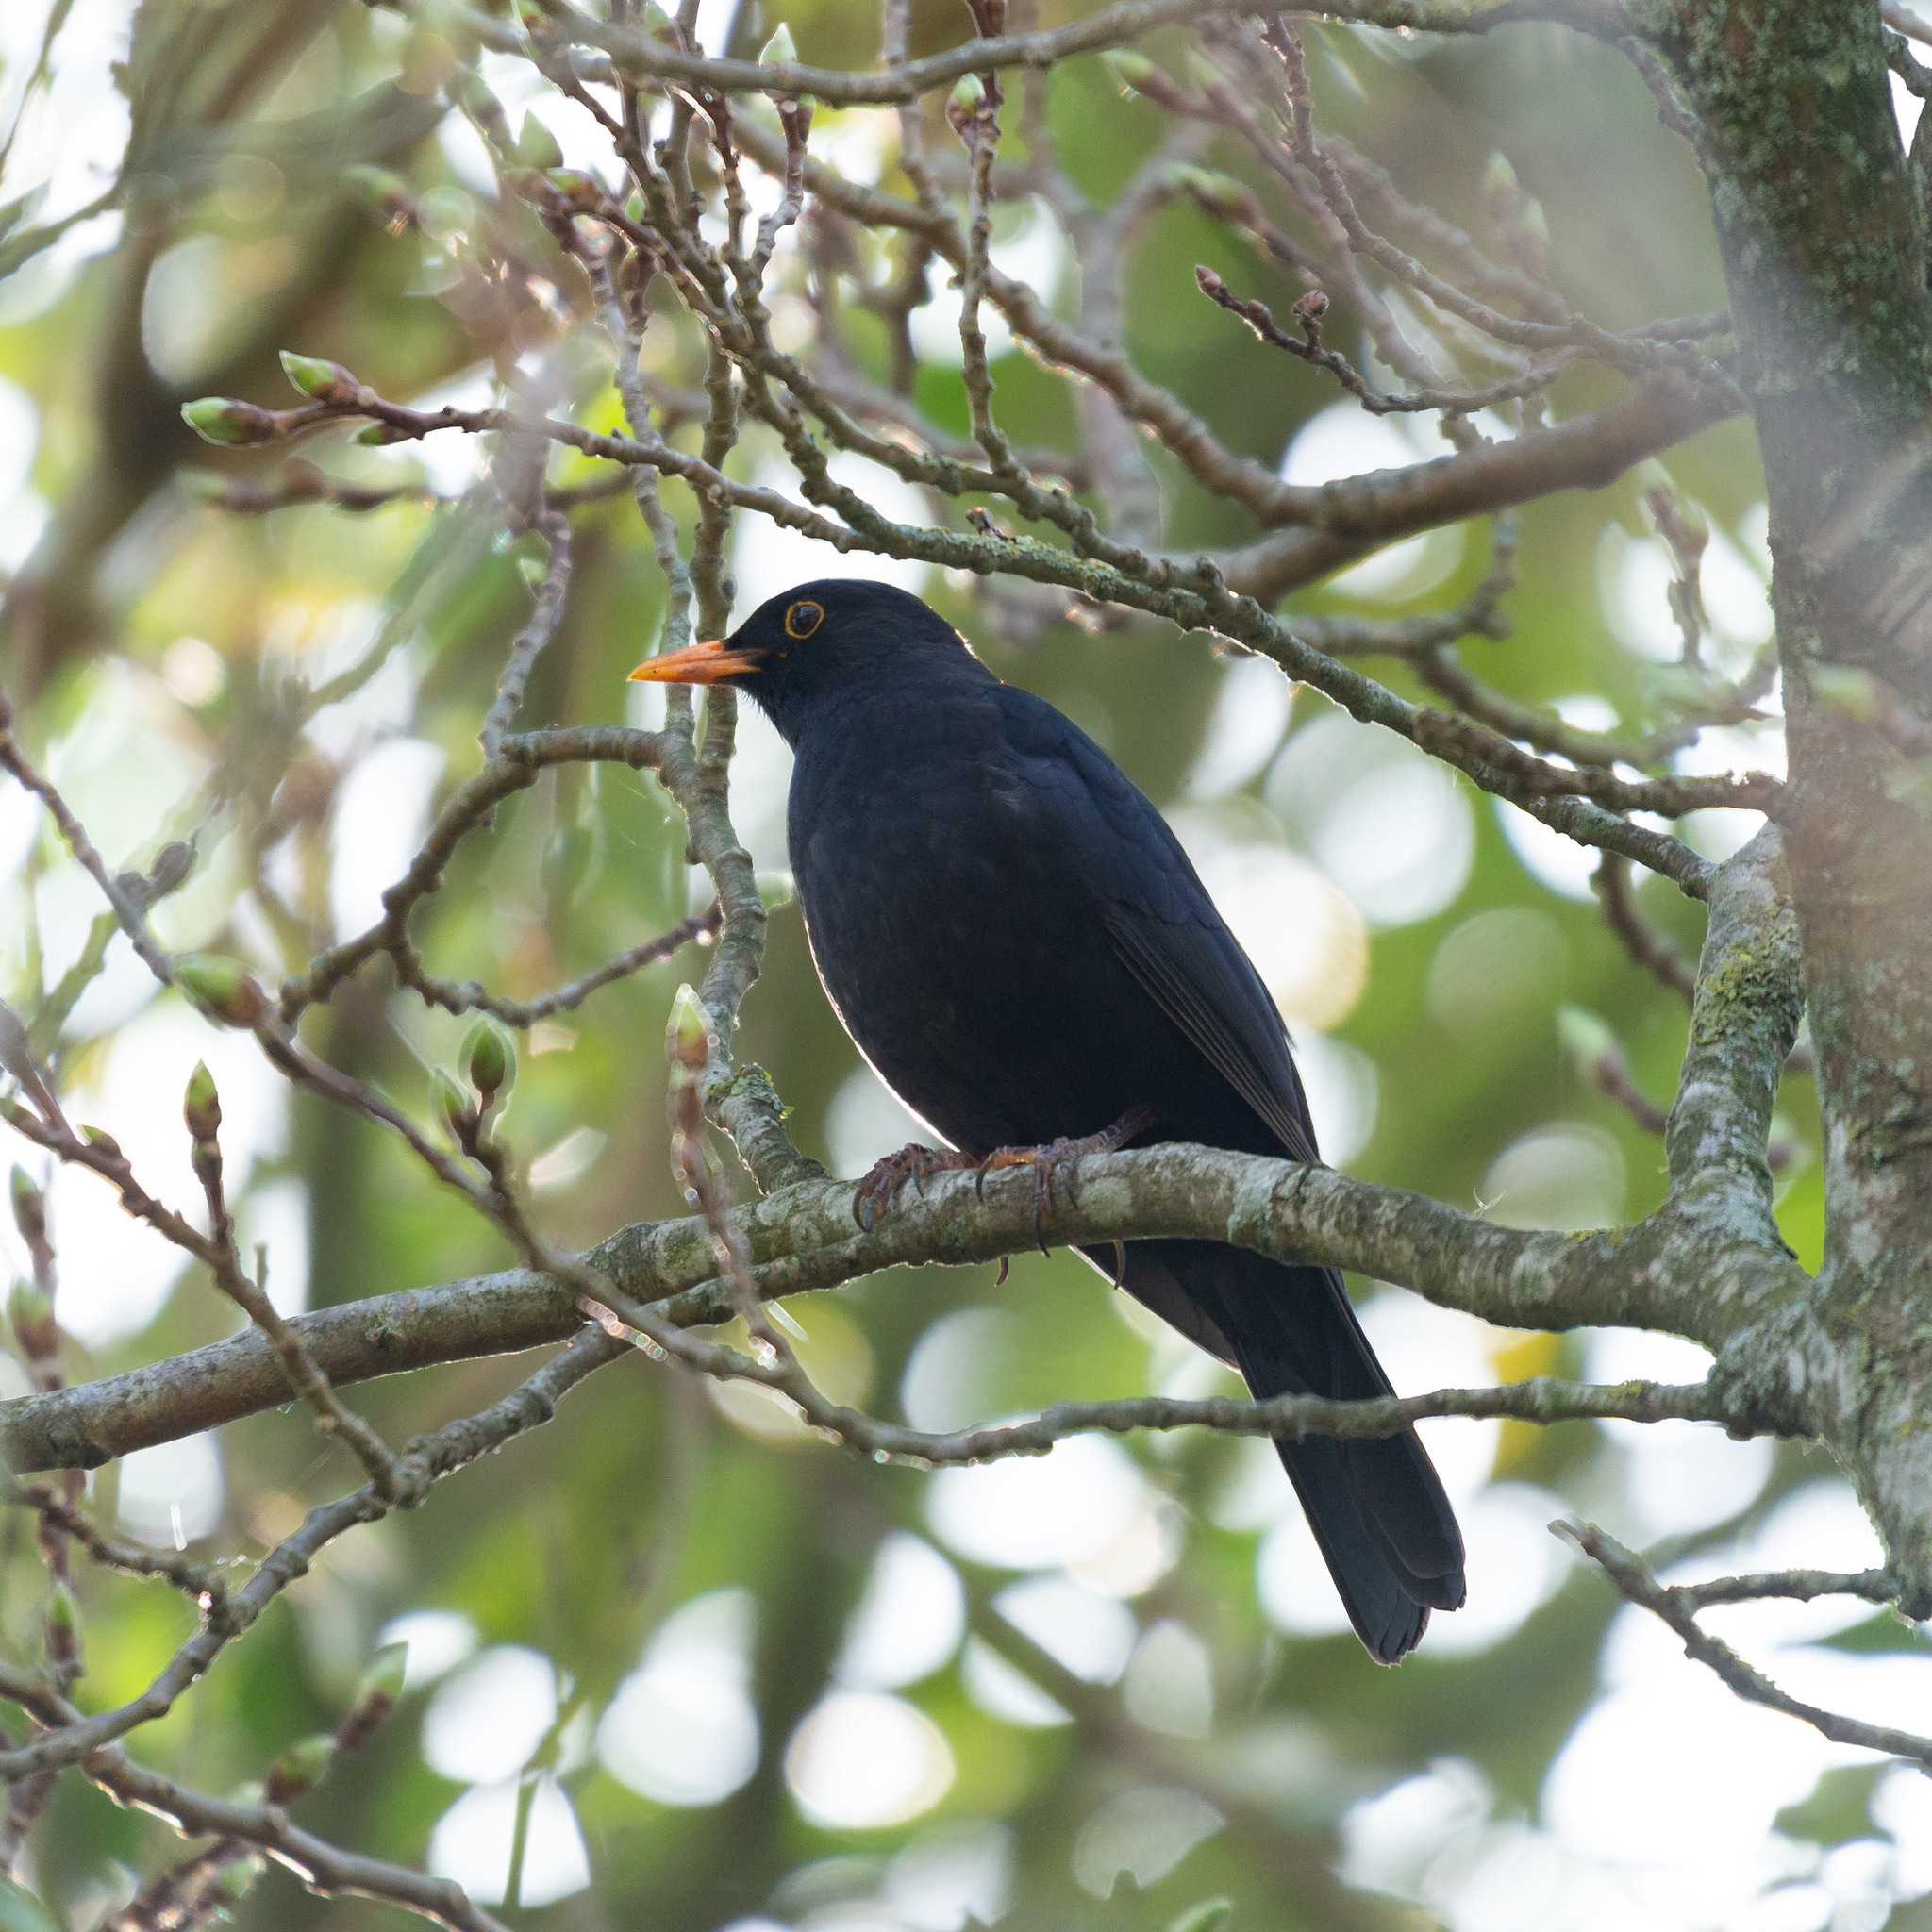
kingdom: Animalia
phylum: Chordata
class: Aves
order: Passeriformes
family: Turdidae
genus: Turdus
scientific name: Turdus merula
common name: Common blackbird
